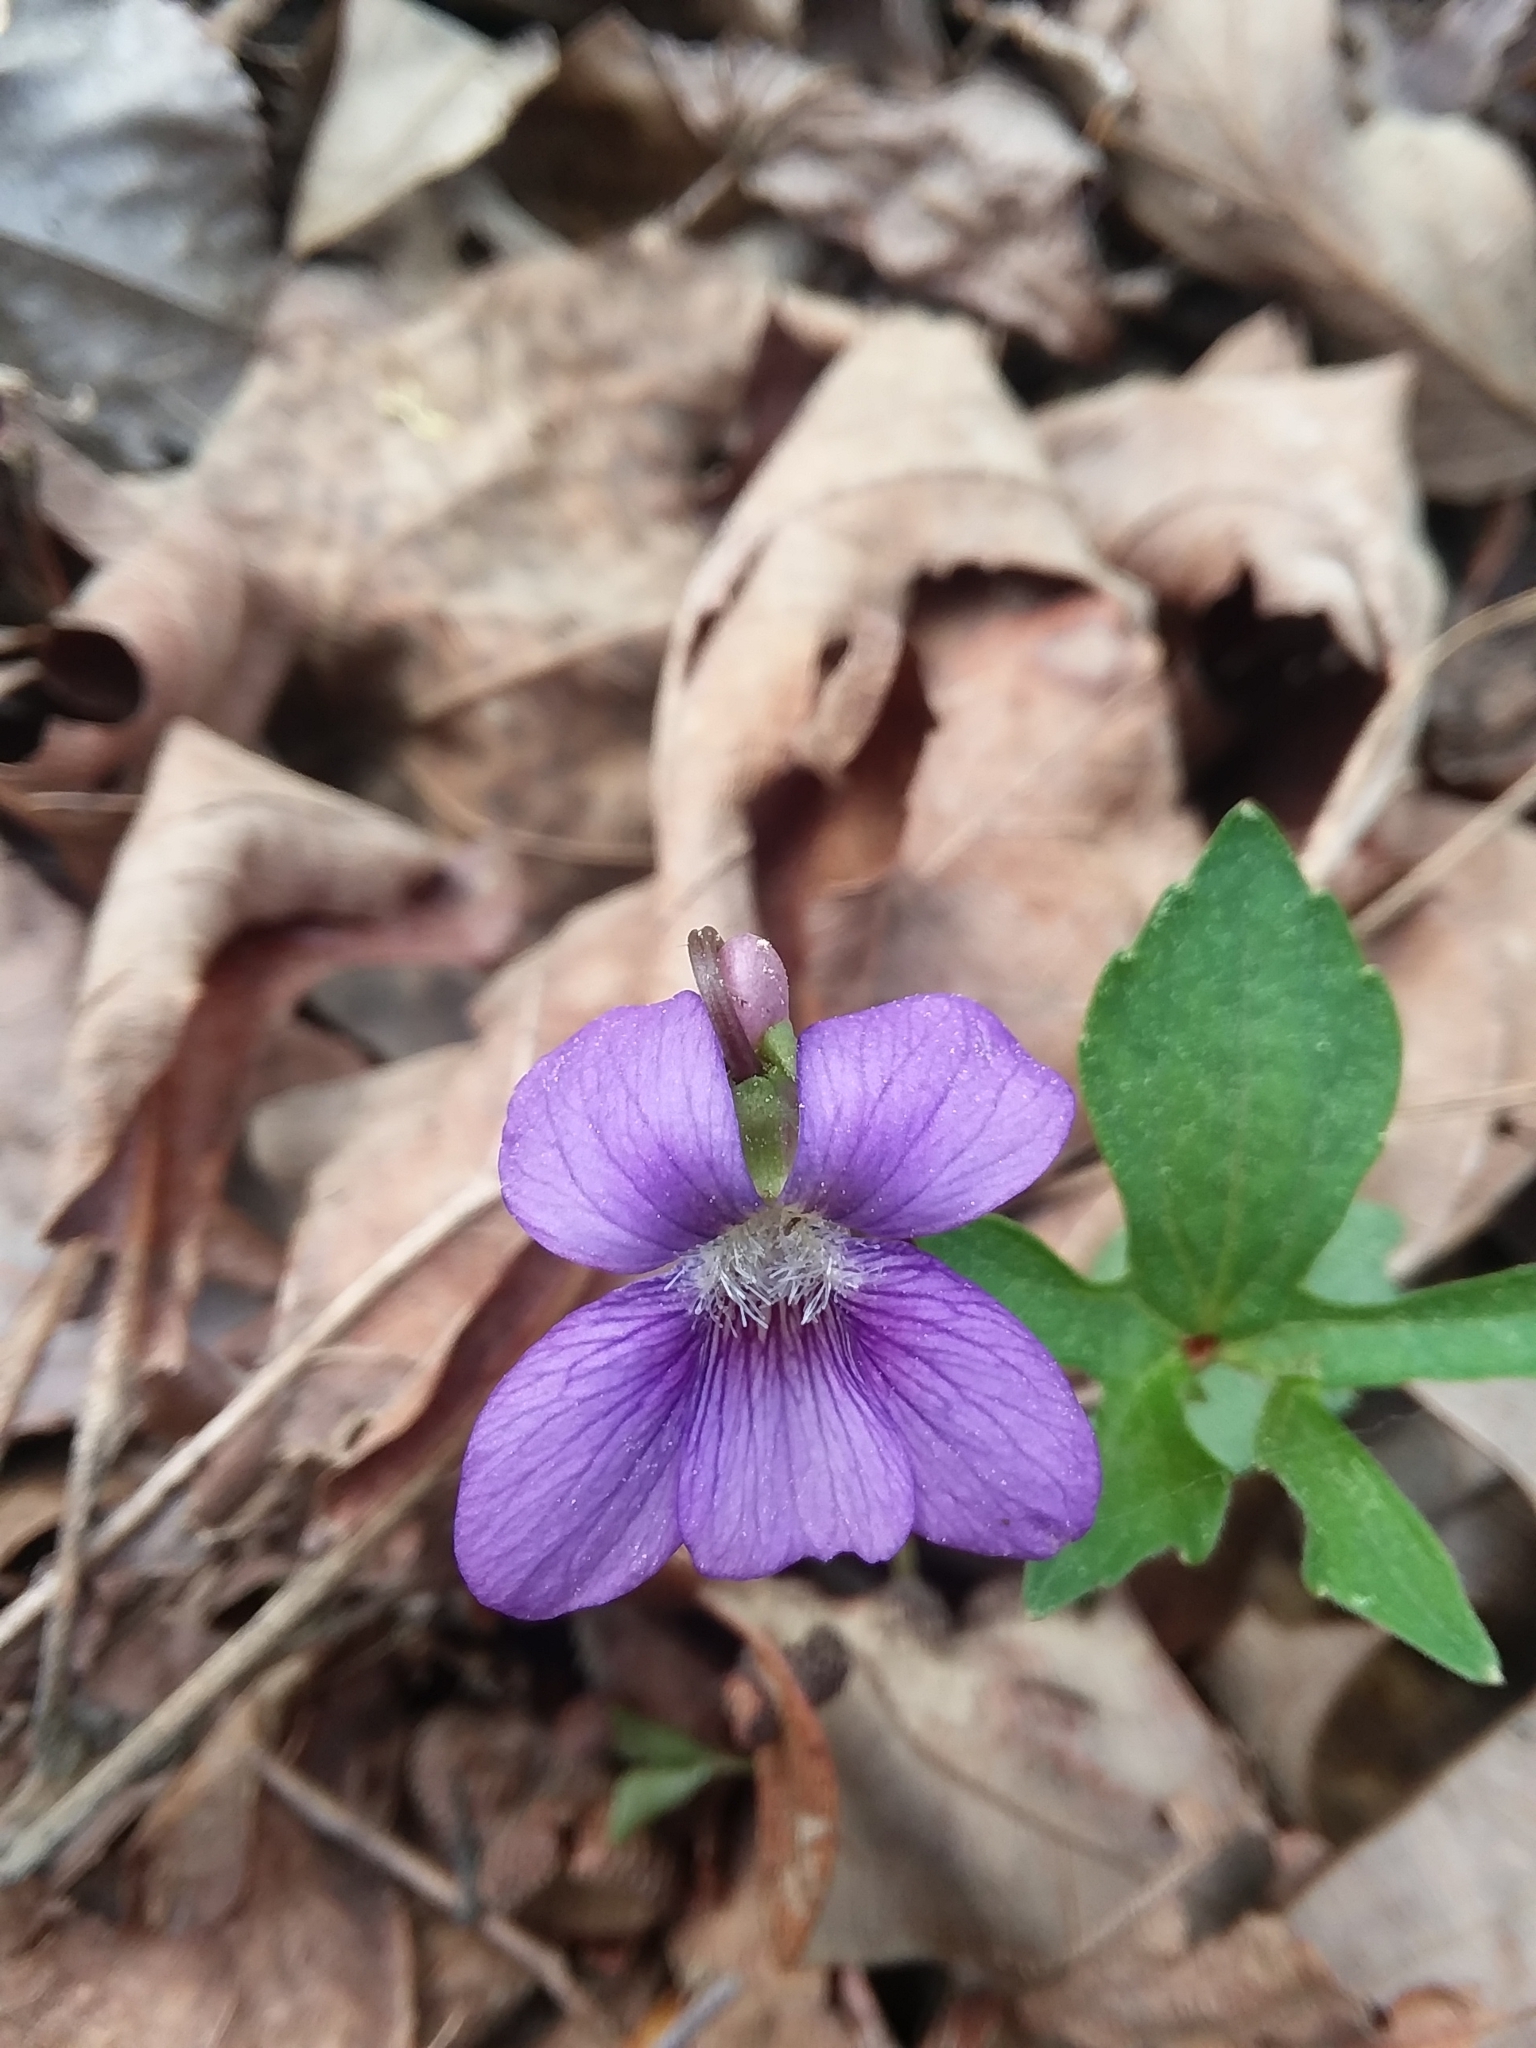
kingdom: Plantae
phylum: Tracheophyta
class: Magnoliopsida
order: Malpighiales
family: Violaceae
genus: Viola
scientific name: Viola palmata
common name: Early blue violet
